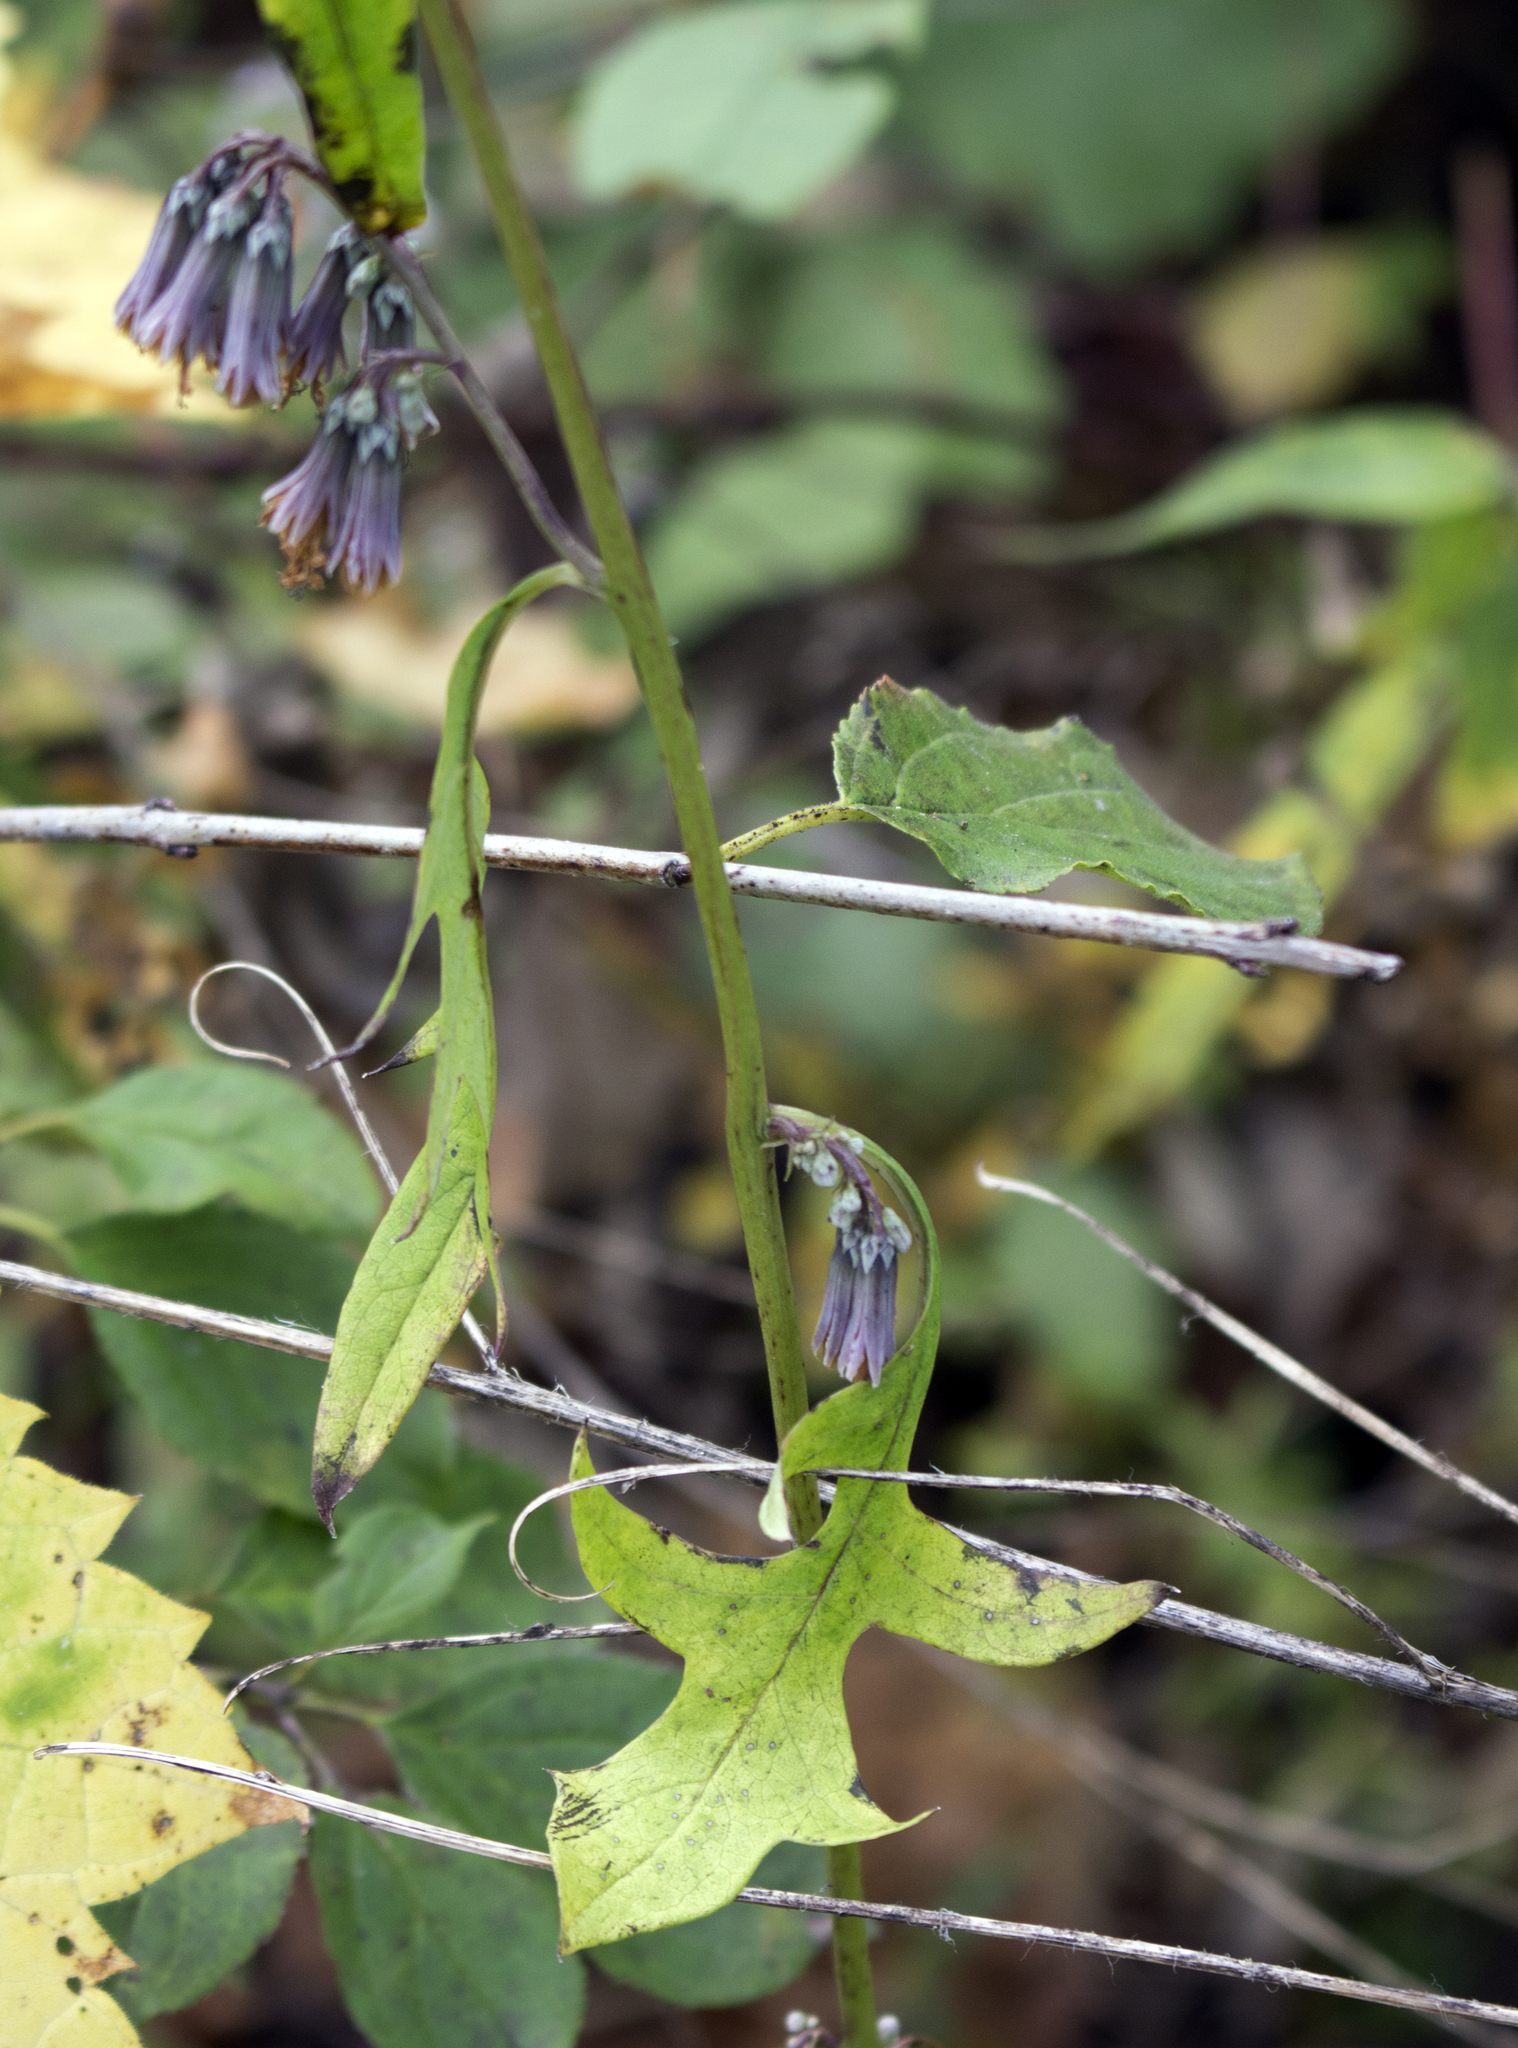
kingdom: Plantae
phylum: Tracheophyta
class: Magnoliopsida
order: Asterales
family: Asteraceae
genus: Nabalus
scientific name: Nabalus albus
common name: White rattlesnakeroot
